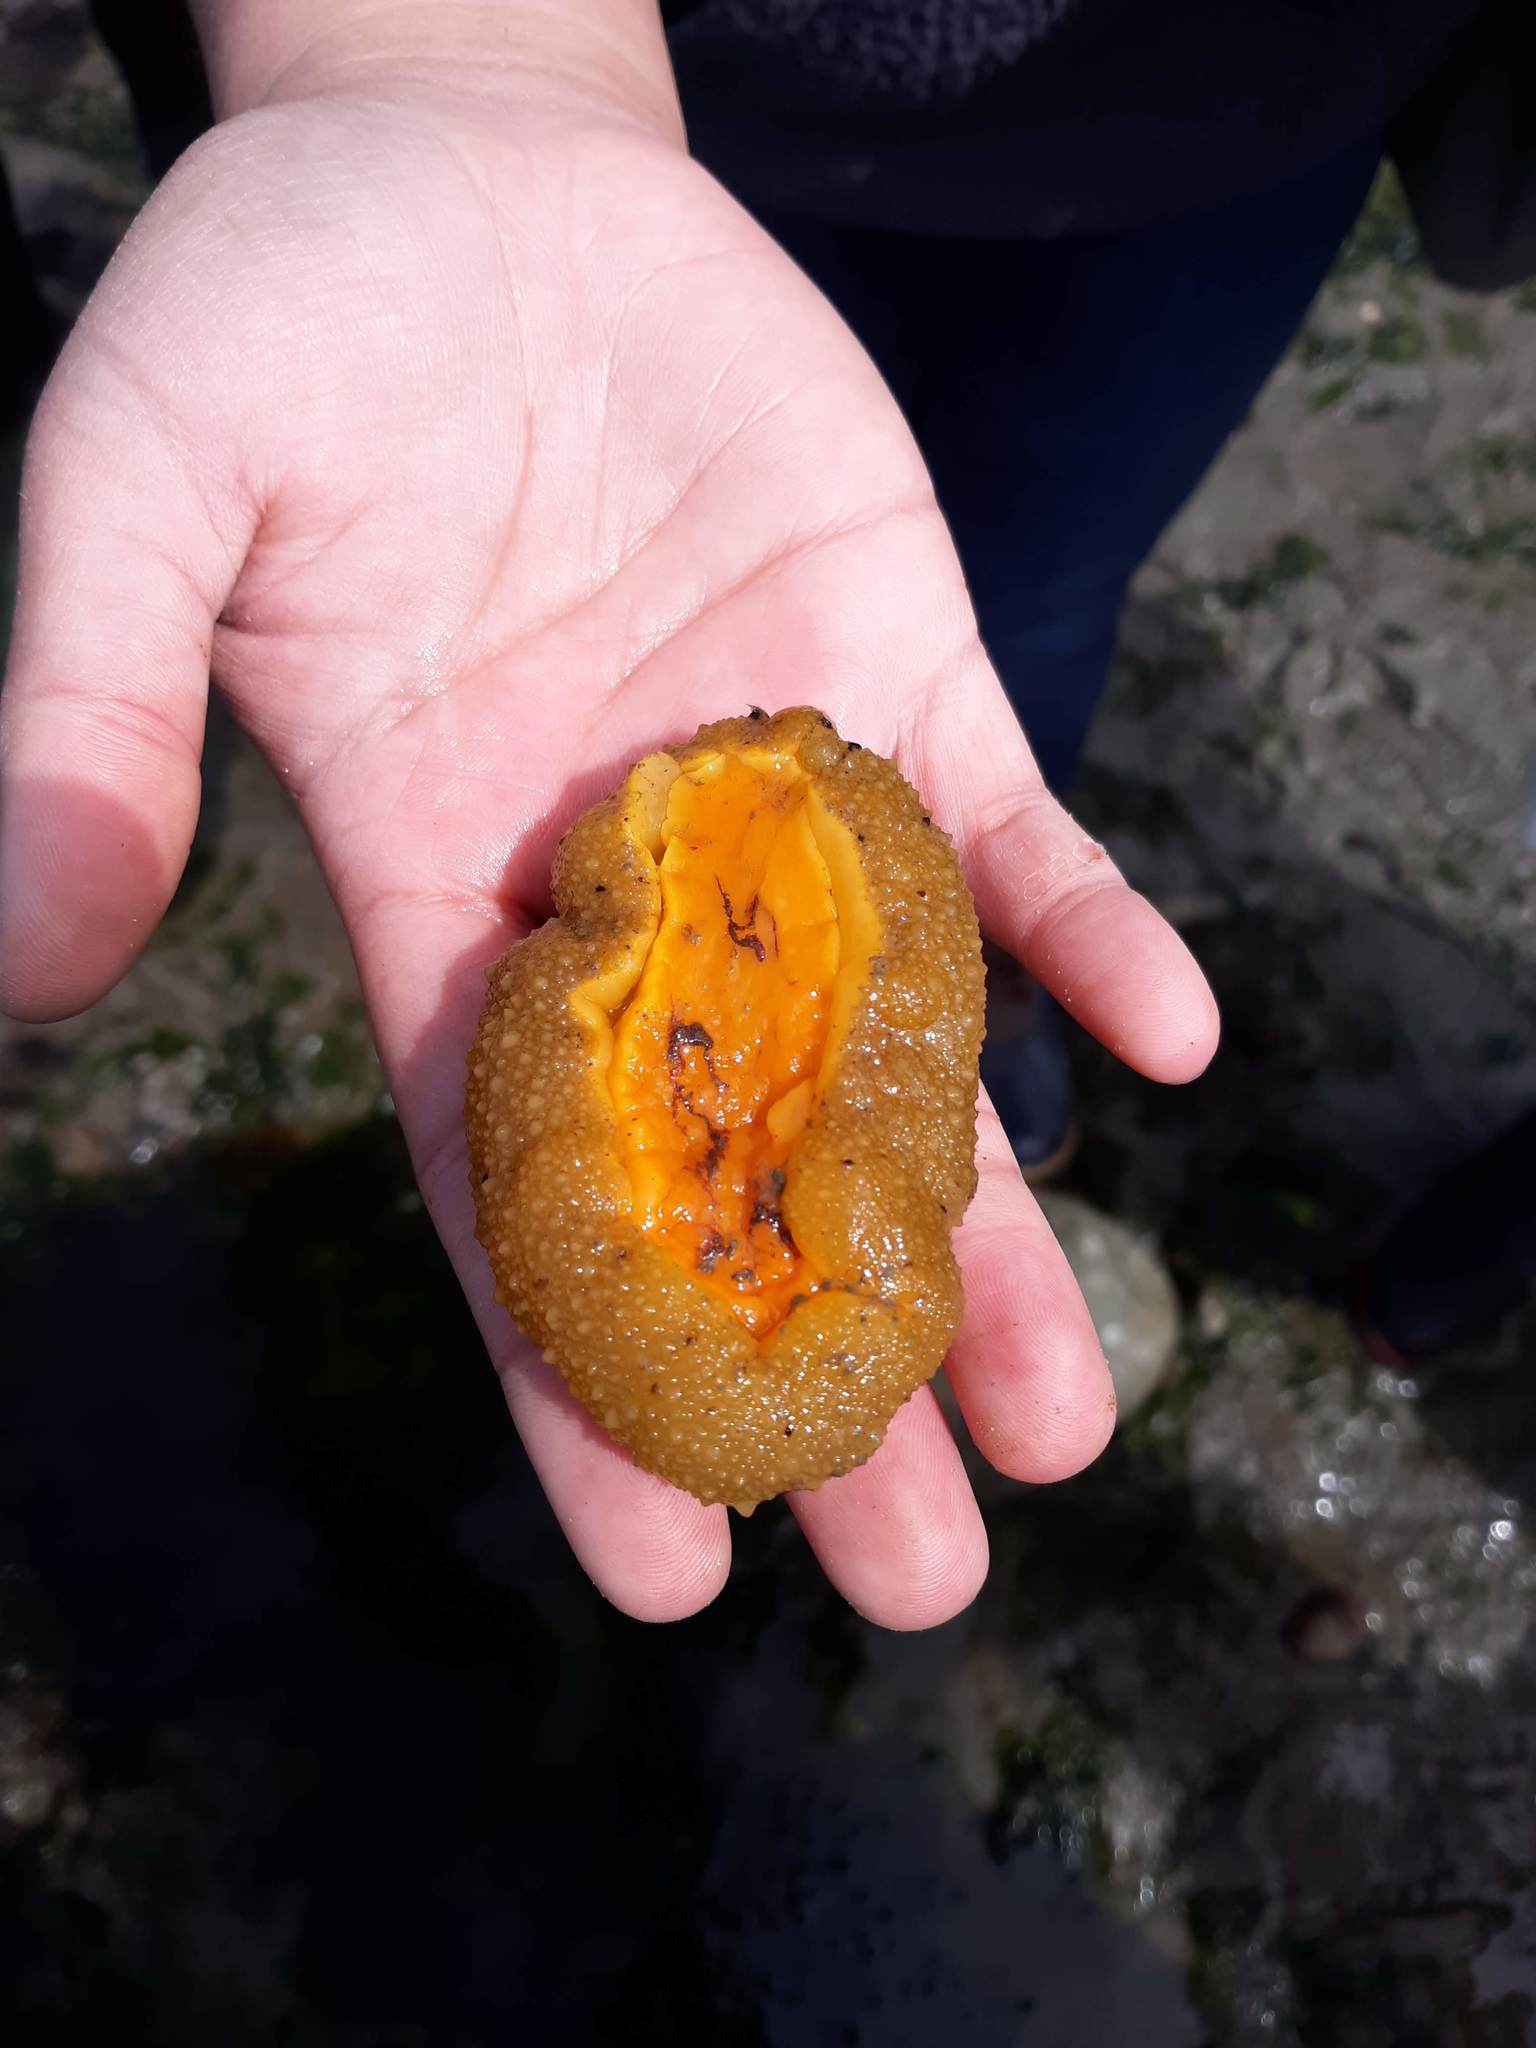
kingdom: Animalia
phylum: Mollusca
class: Polyplacophora
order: Chitonida
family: Acanthochitonidae
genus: Cryptochiton
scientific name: Cryptochiton stelleri
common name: Giant pacific chiton
